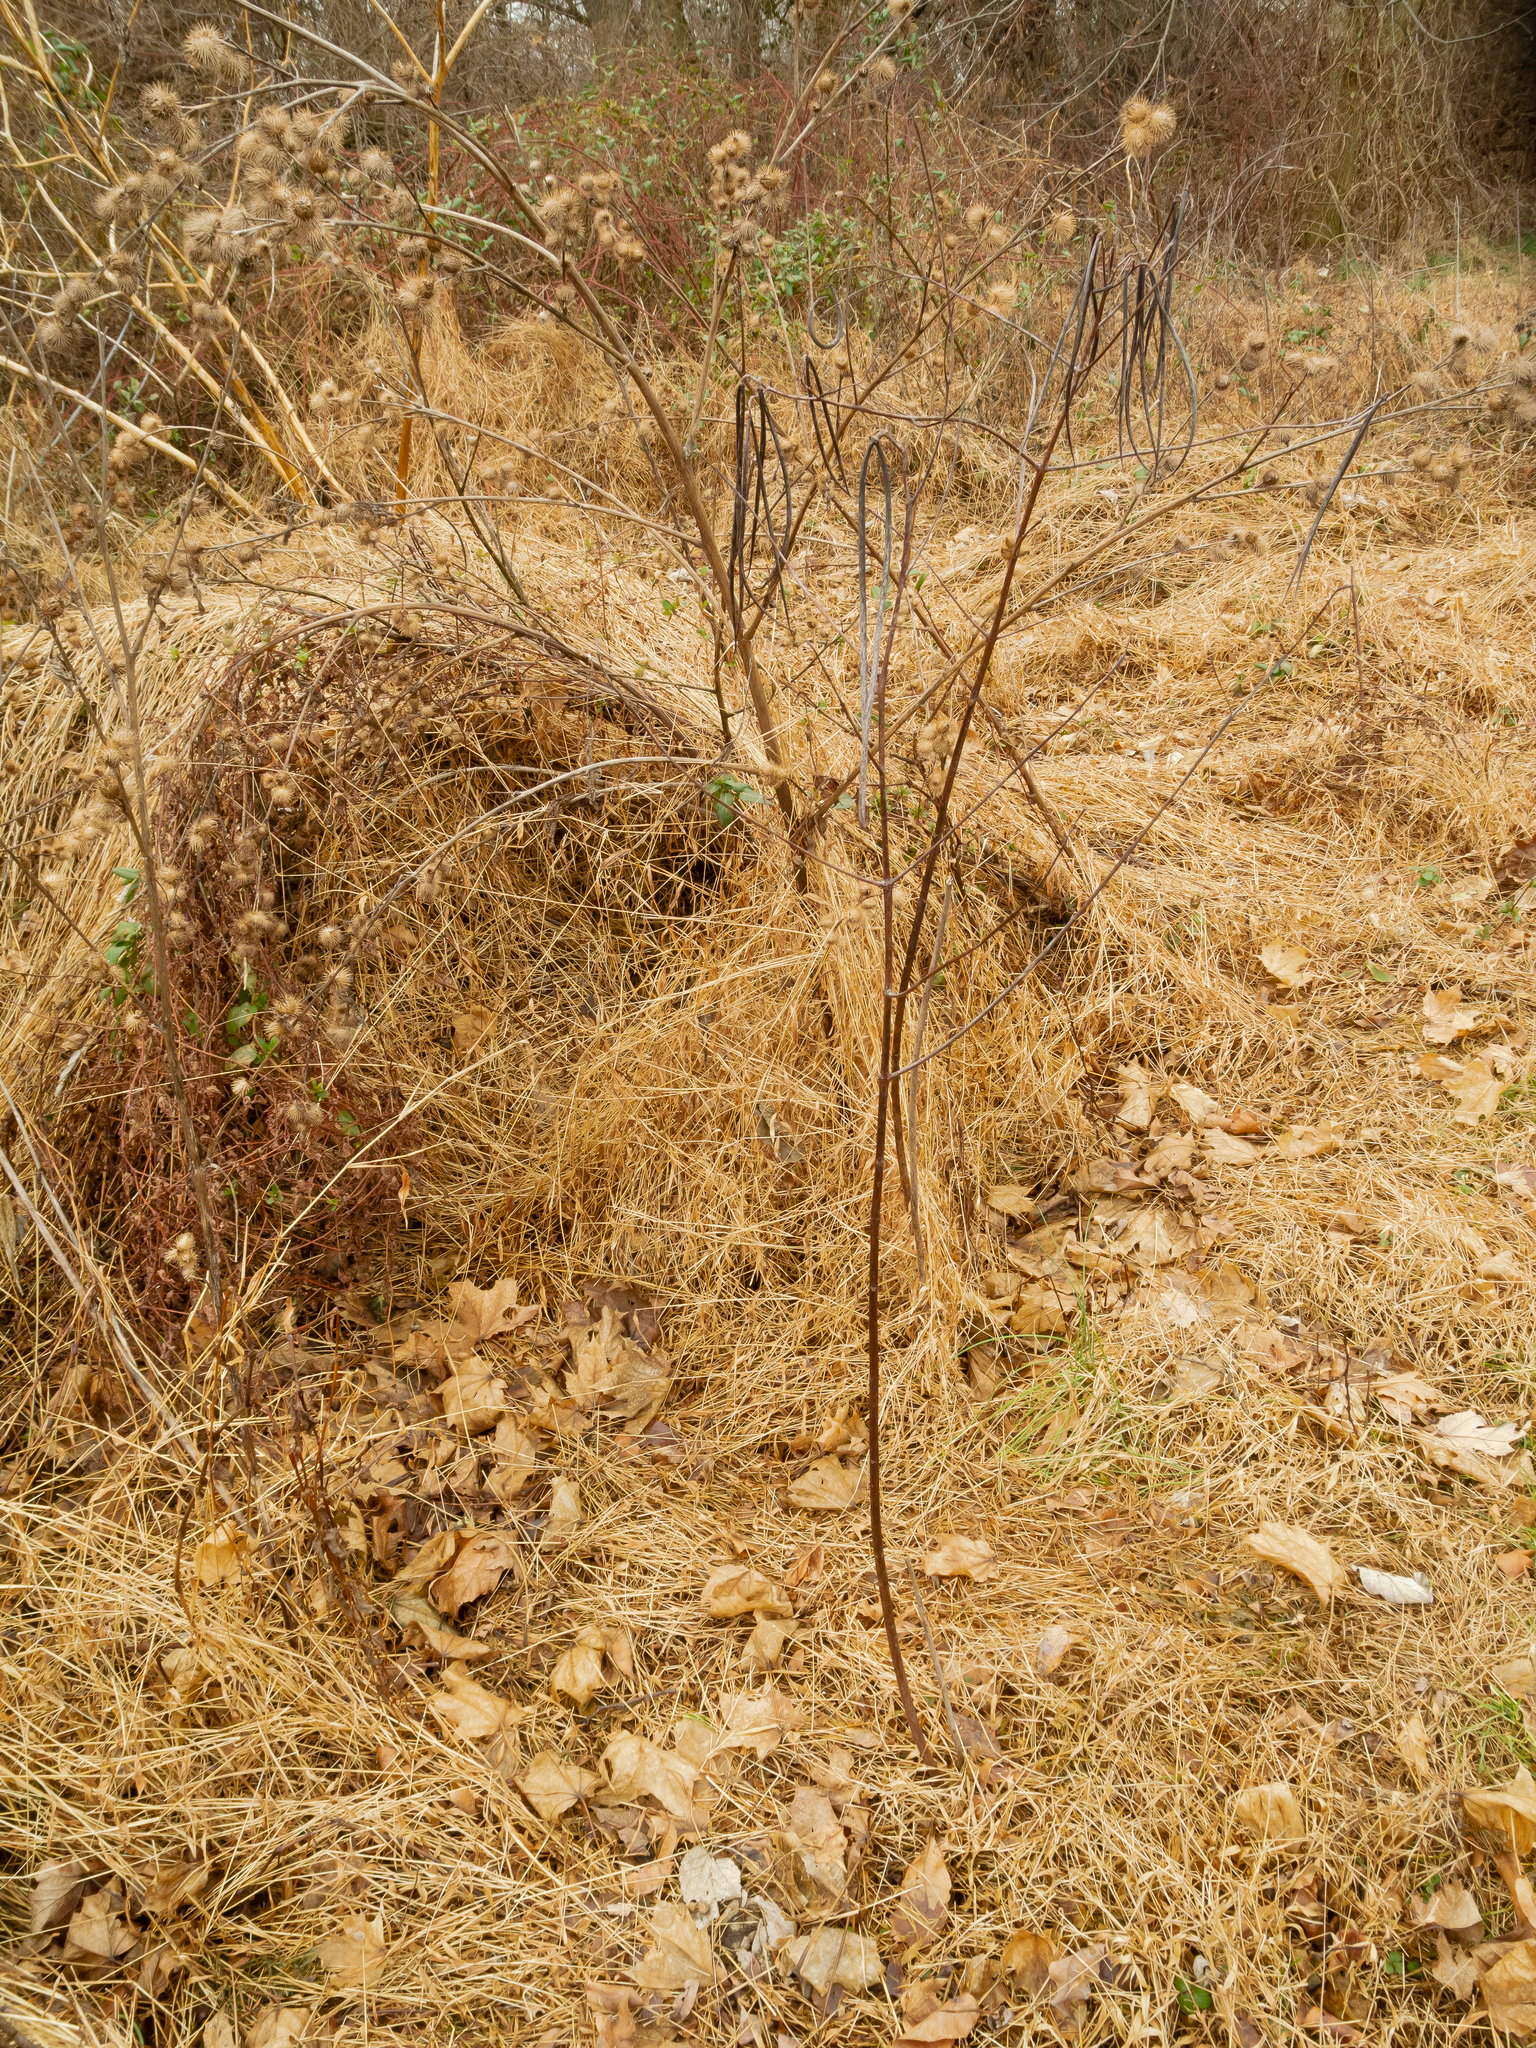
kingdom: Plantae
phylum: Tracheophyta
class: Magnoliopsida
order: Asterales
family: Asteraceae
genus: Arctium
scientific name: Arctium minus
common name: Lesser burdock
